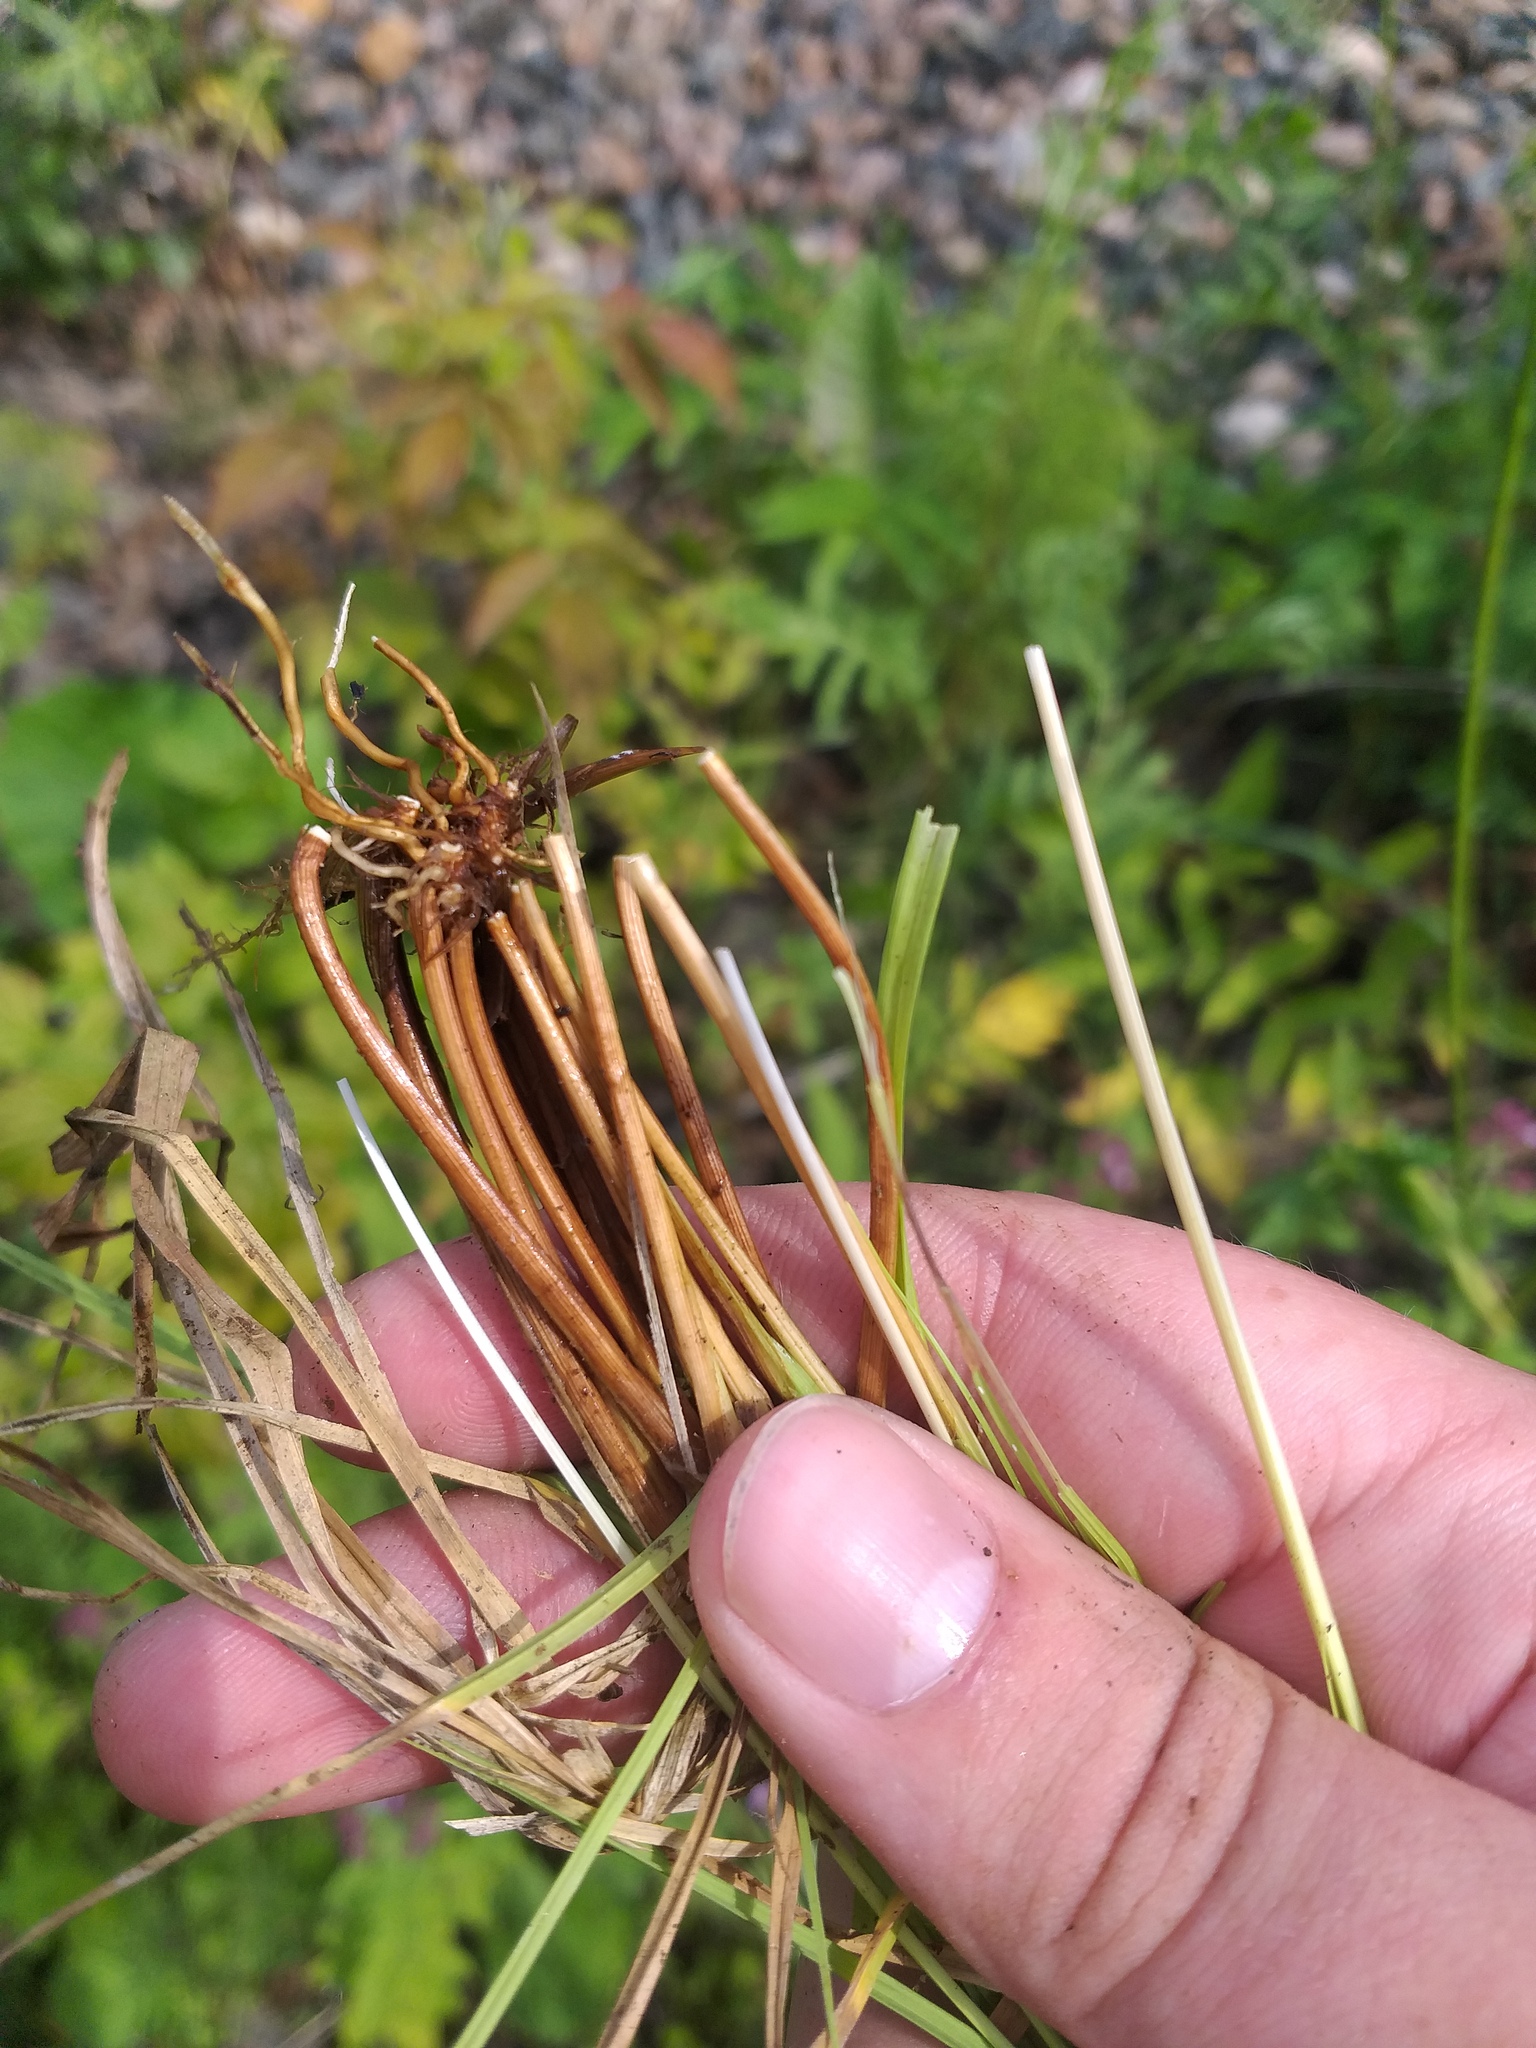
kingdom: Plantae
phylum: Tracheophyta
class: Liliopsida
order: Poales
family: Cyperaceae
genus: Carex
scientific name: Carex canescens
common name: White sedge
